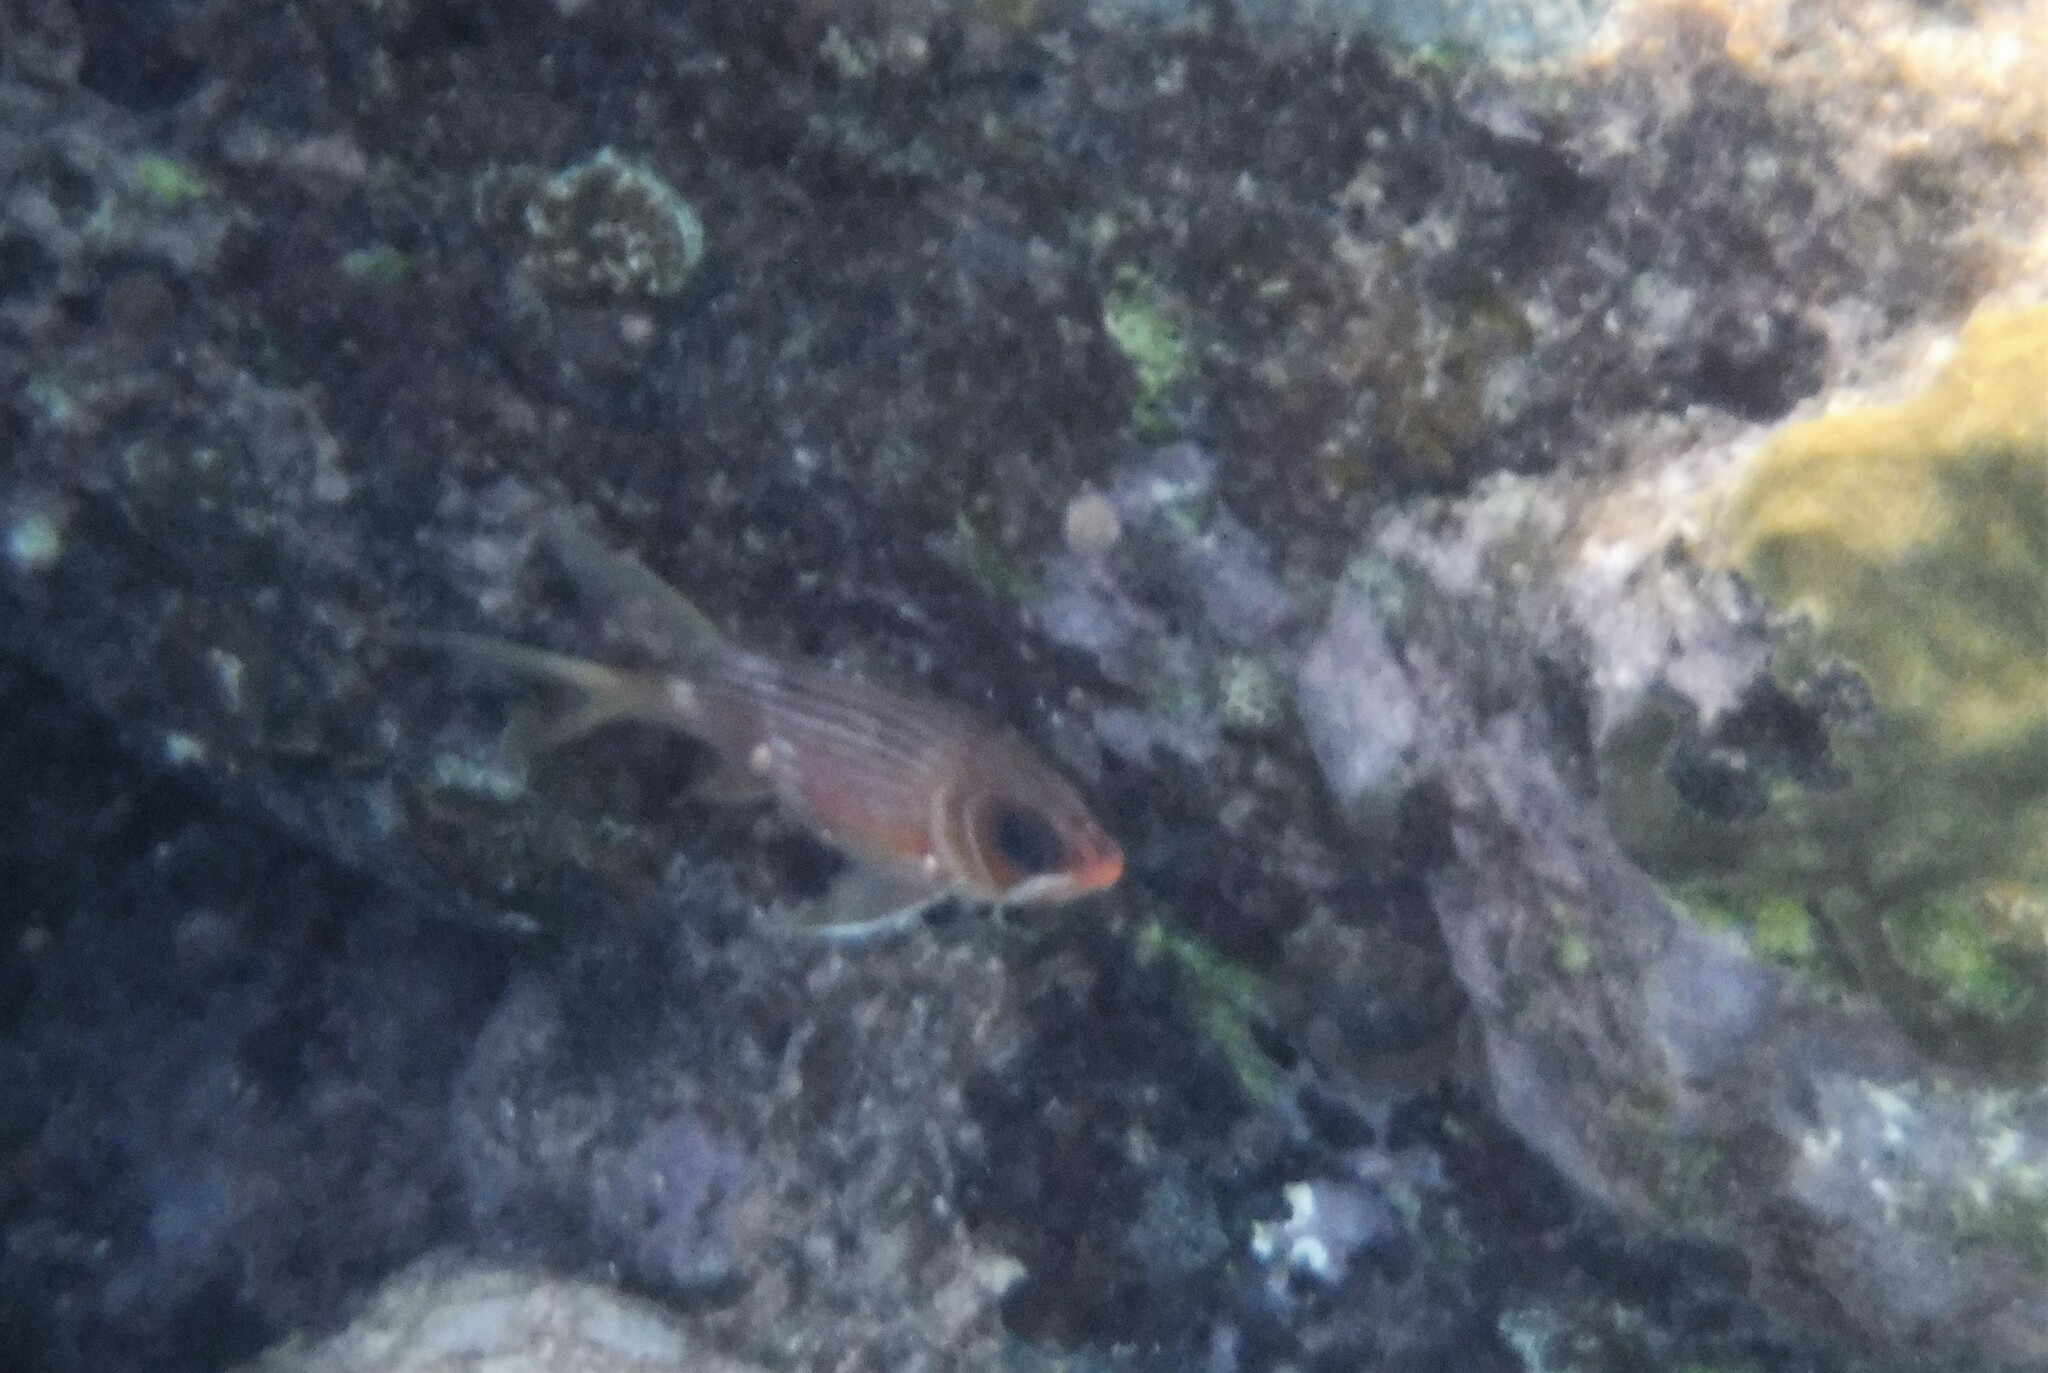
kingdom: Animalia
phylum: Chordata
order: Beryciformes
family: Holocentridae
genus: Holocentrus
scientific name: Holocentrus rufus
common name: Longspine squirrelfish
